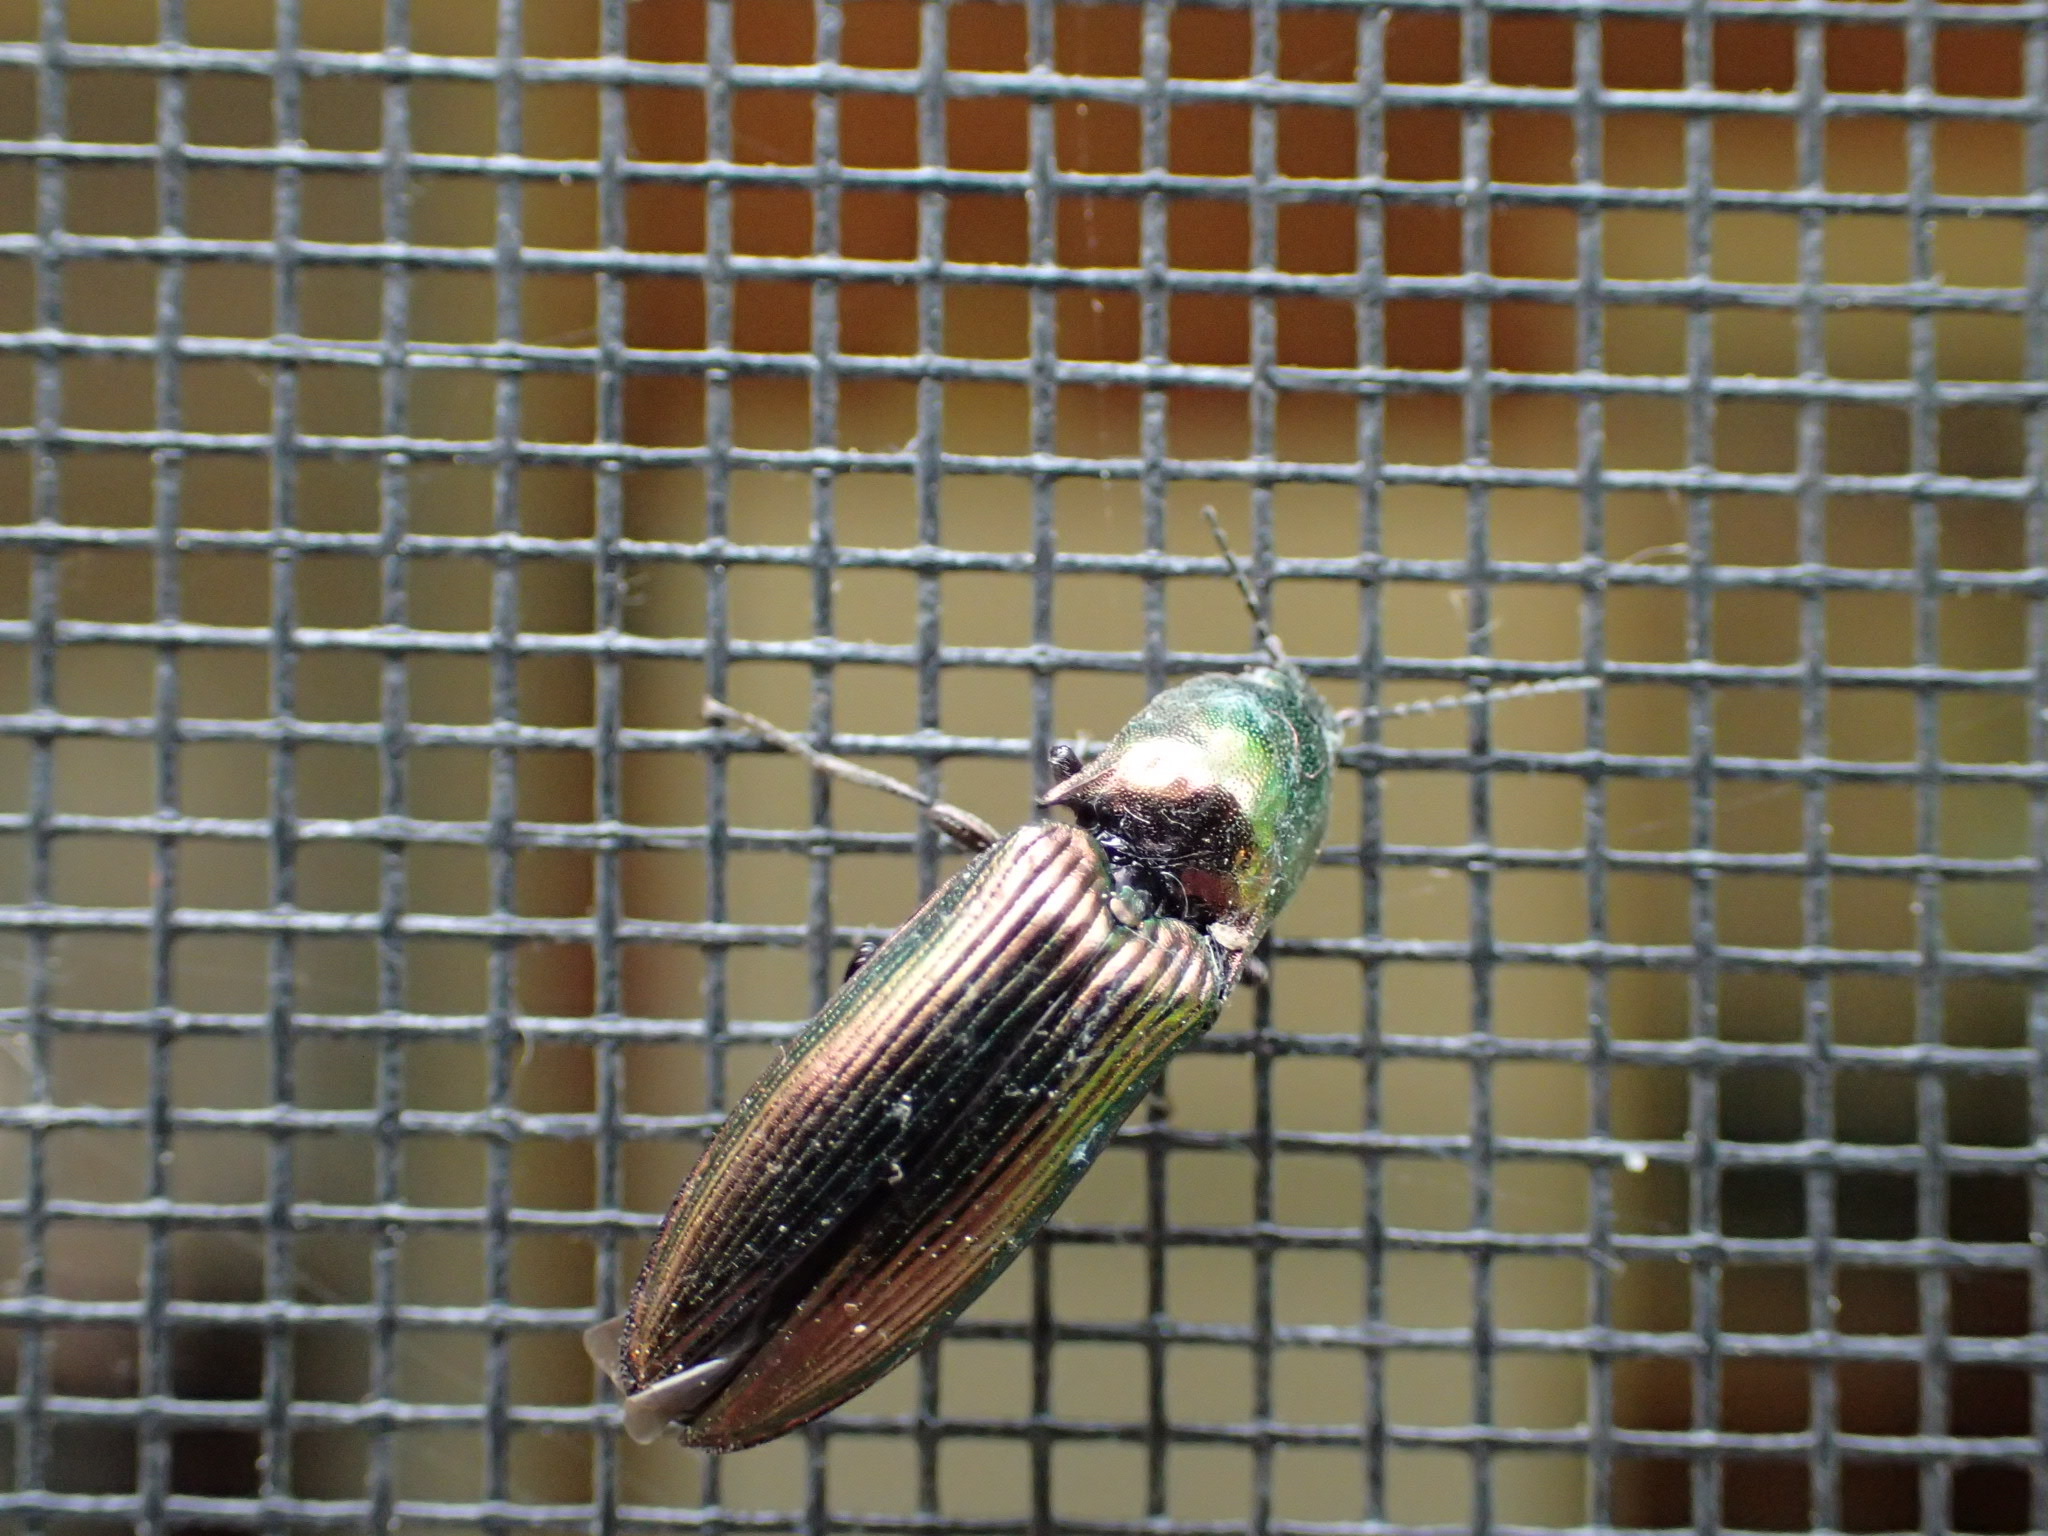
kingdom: Animalia
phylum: Arthropoda
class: Insecta
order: Coleoptera
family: Elateridae
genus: Nitidolimonius
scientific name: Nitidolimonius resplendens
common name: Resplendent click beetle
